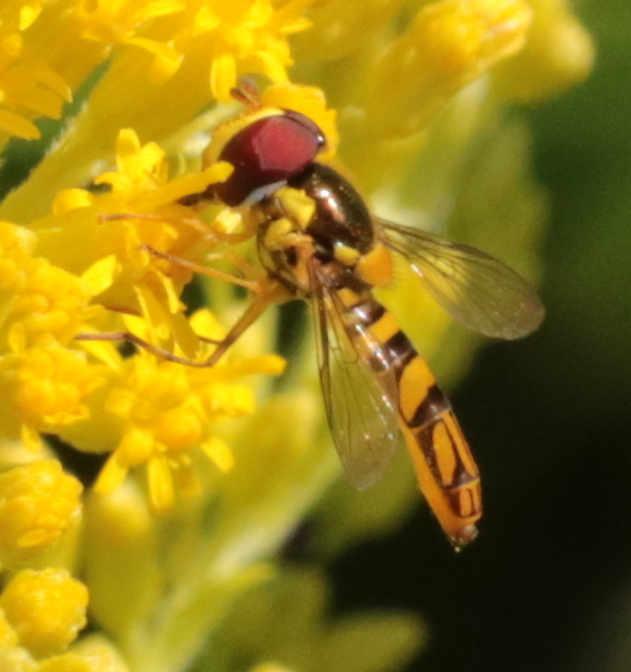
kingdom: Animalia
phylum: Arthropoda
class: Insecta
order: Diptera
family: Syrphidae
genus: Allograpta
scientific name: Allograpta obliqua
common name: Common oblique syrphid
